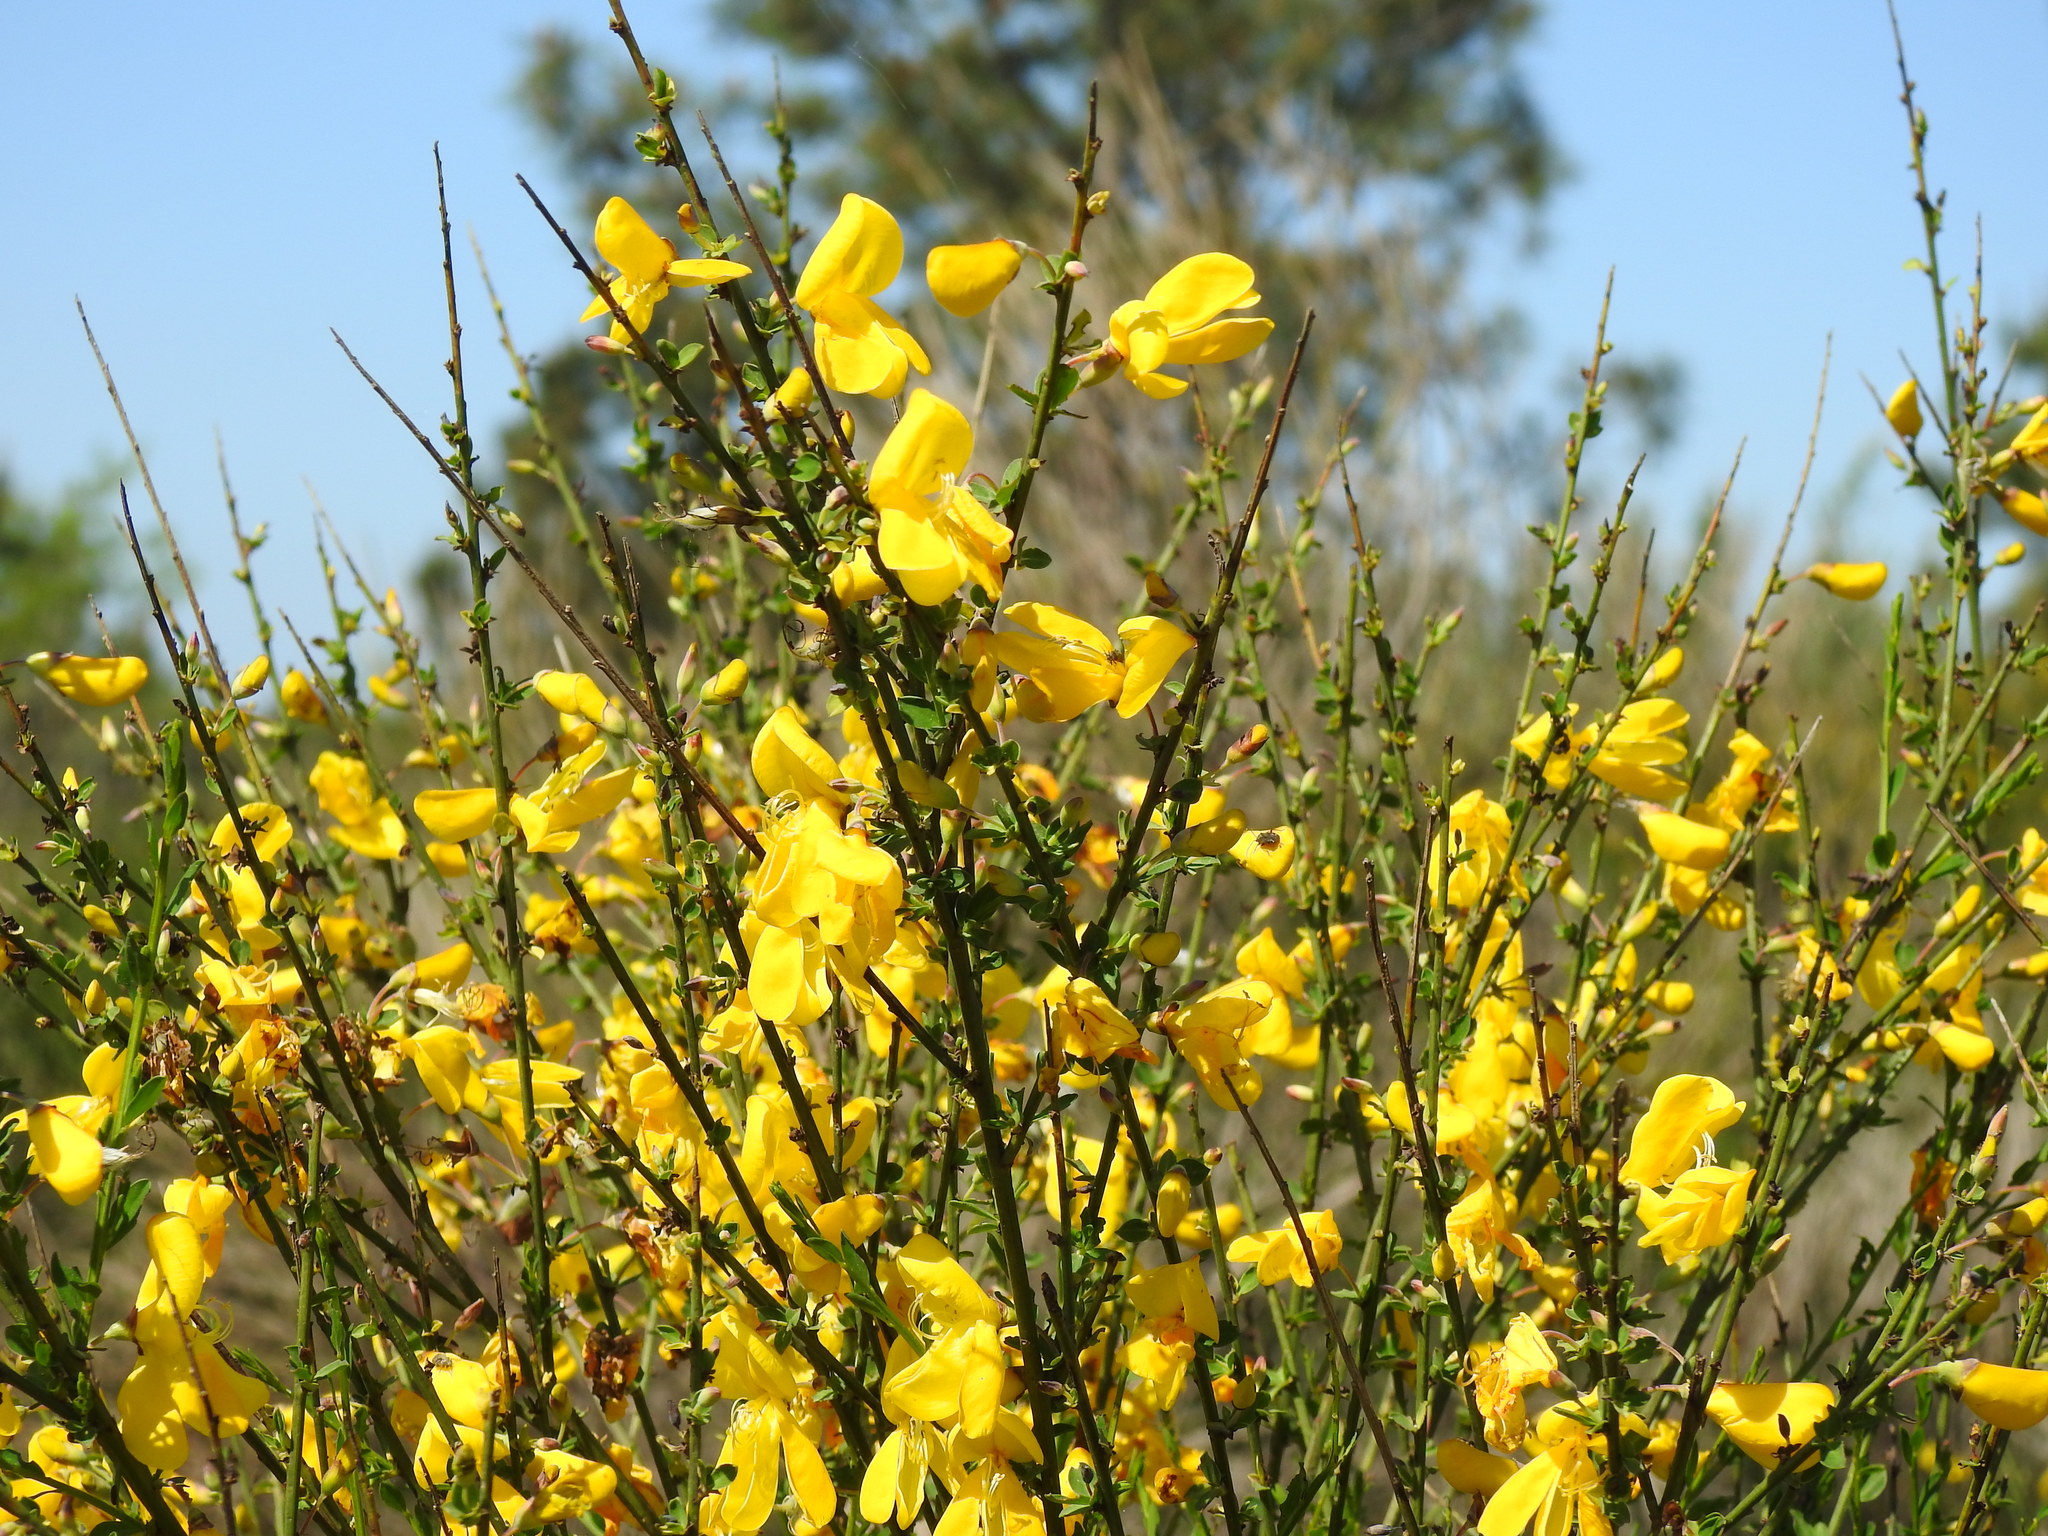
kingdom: Plantae
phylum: Tracheophyta
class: Magnoliopsida
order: Fabales
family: Fabaceae
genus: Cytisus
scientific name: Cytisus grandiflorus
